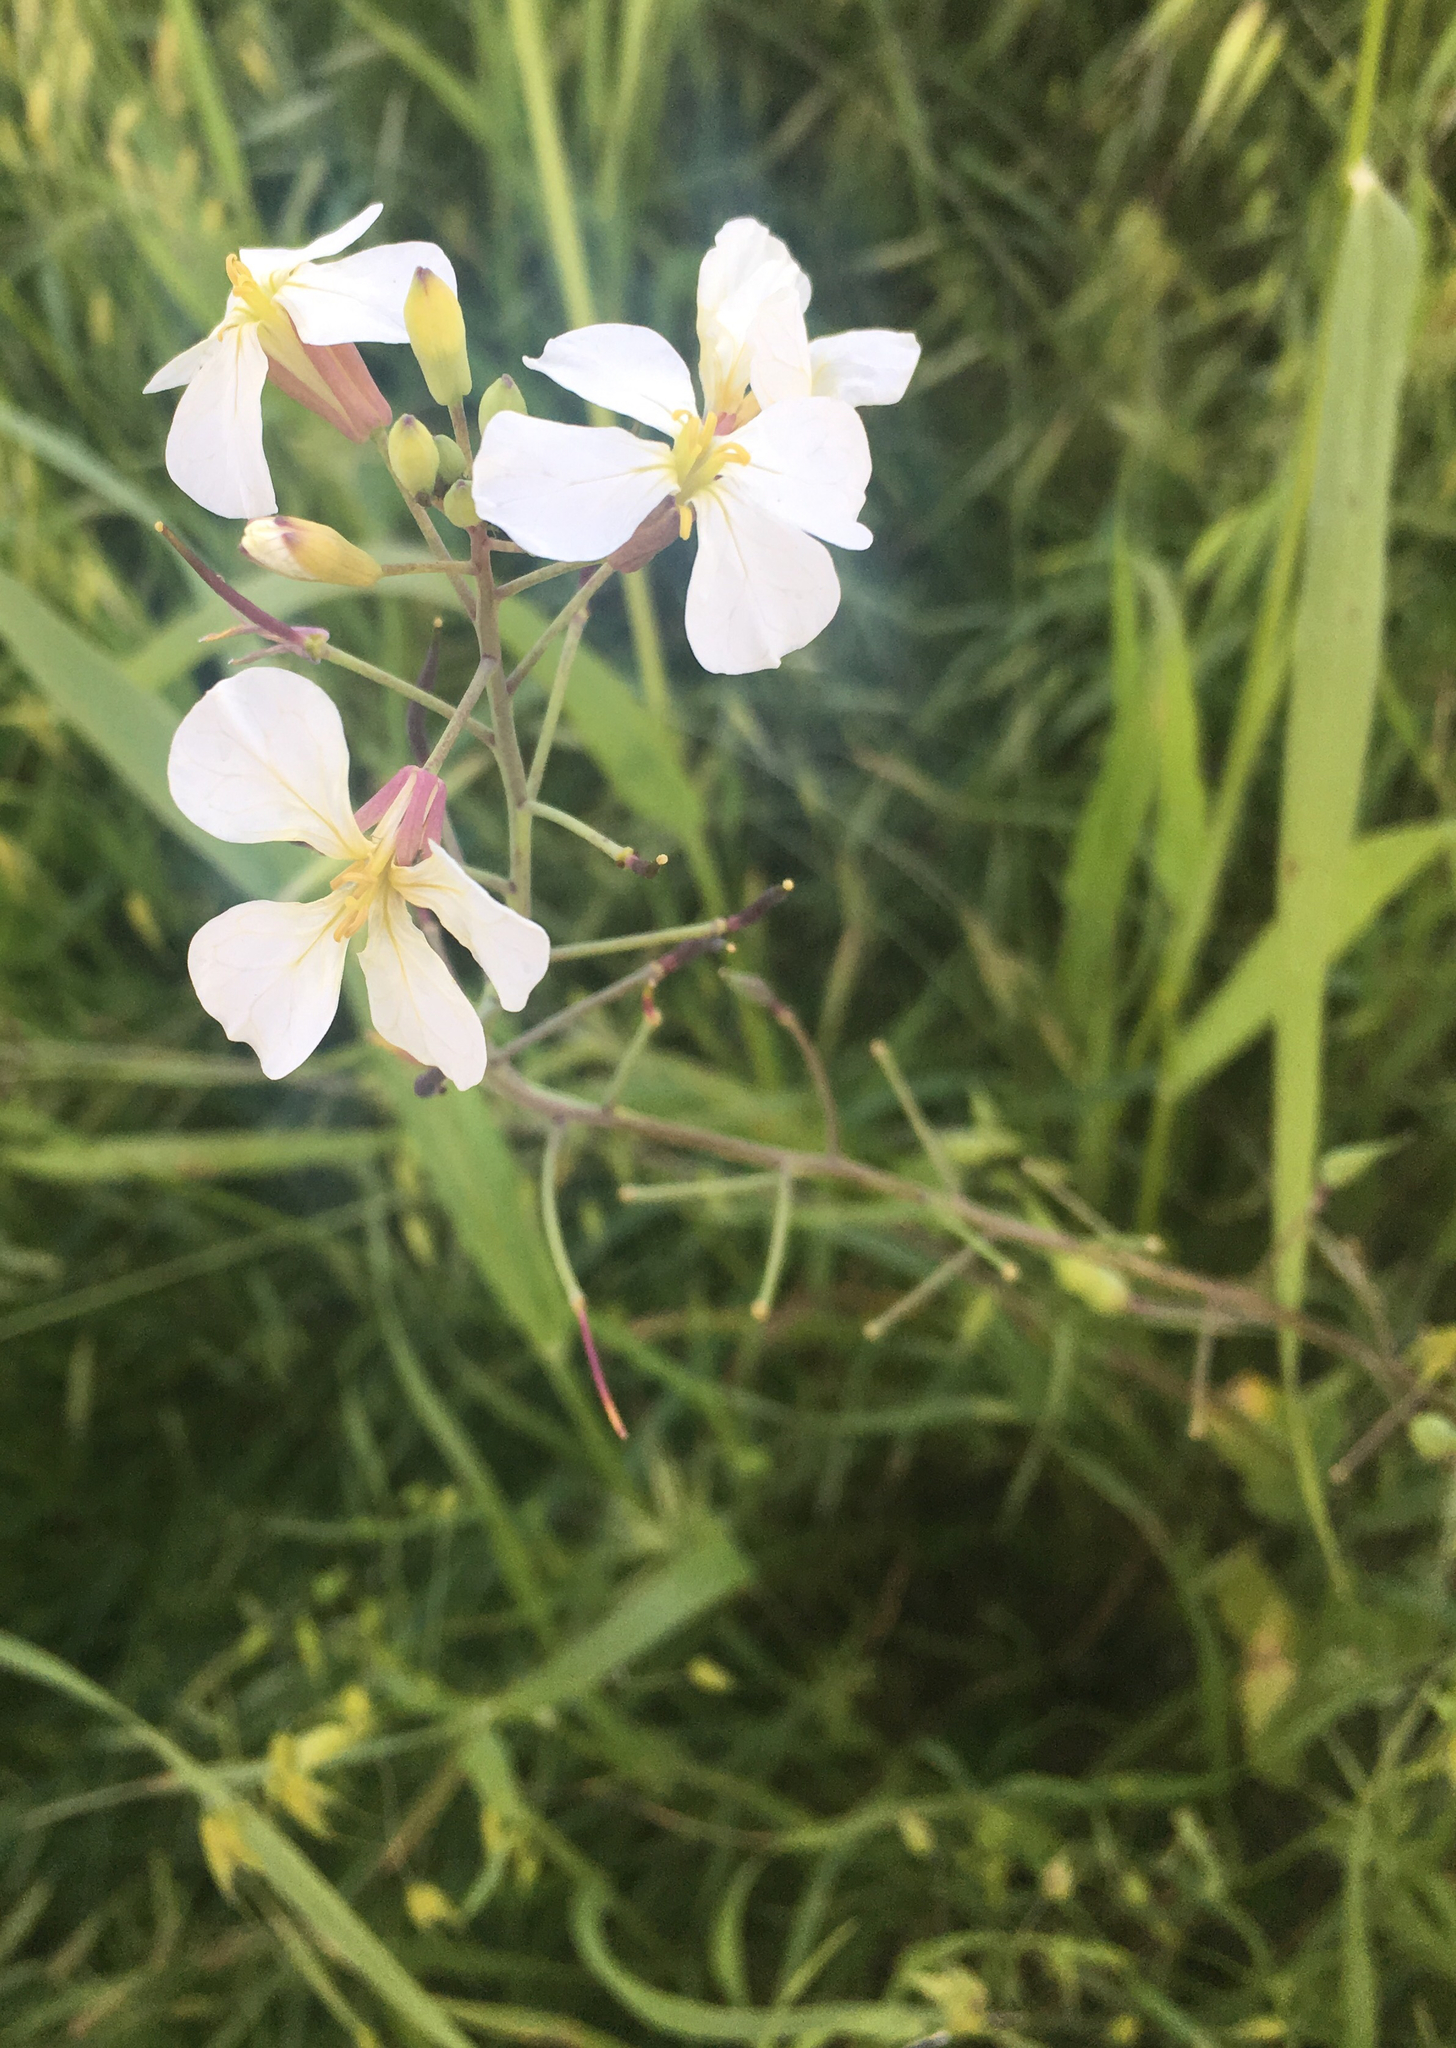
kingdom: Plantae
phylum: Tracheophyta
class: Magnoliopsida
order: Brassicales
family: Brassicaceae
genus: Raphanus
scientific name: Raphanus sativus
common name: Cultivated radish
